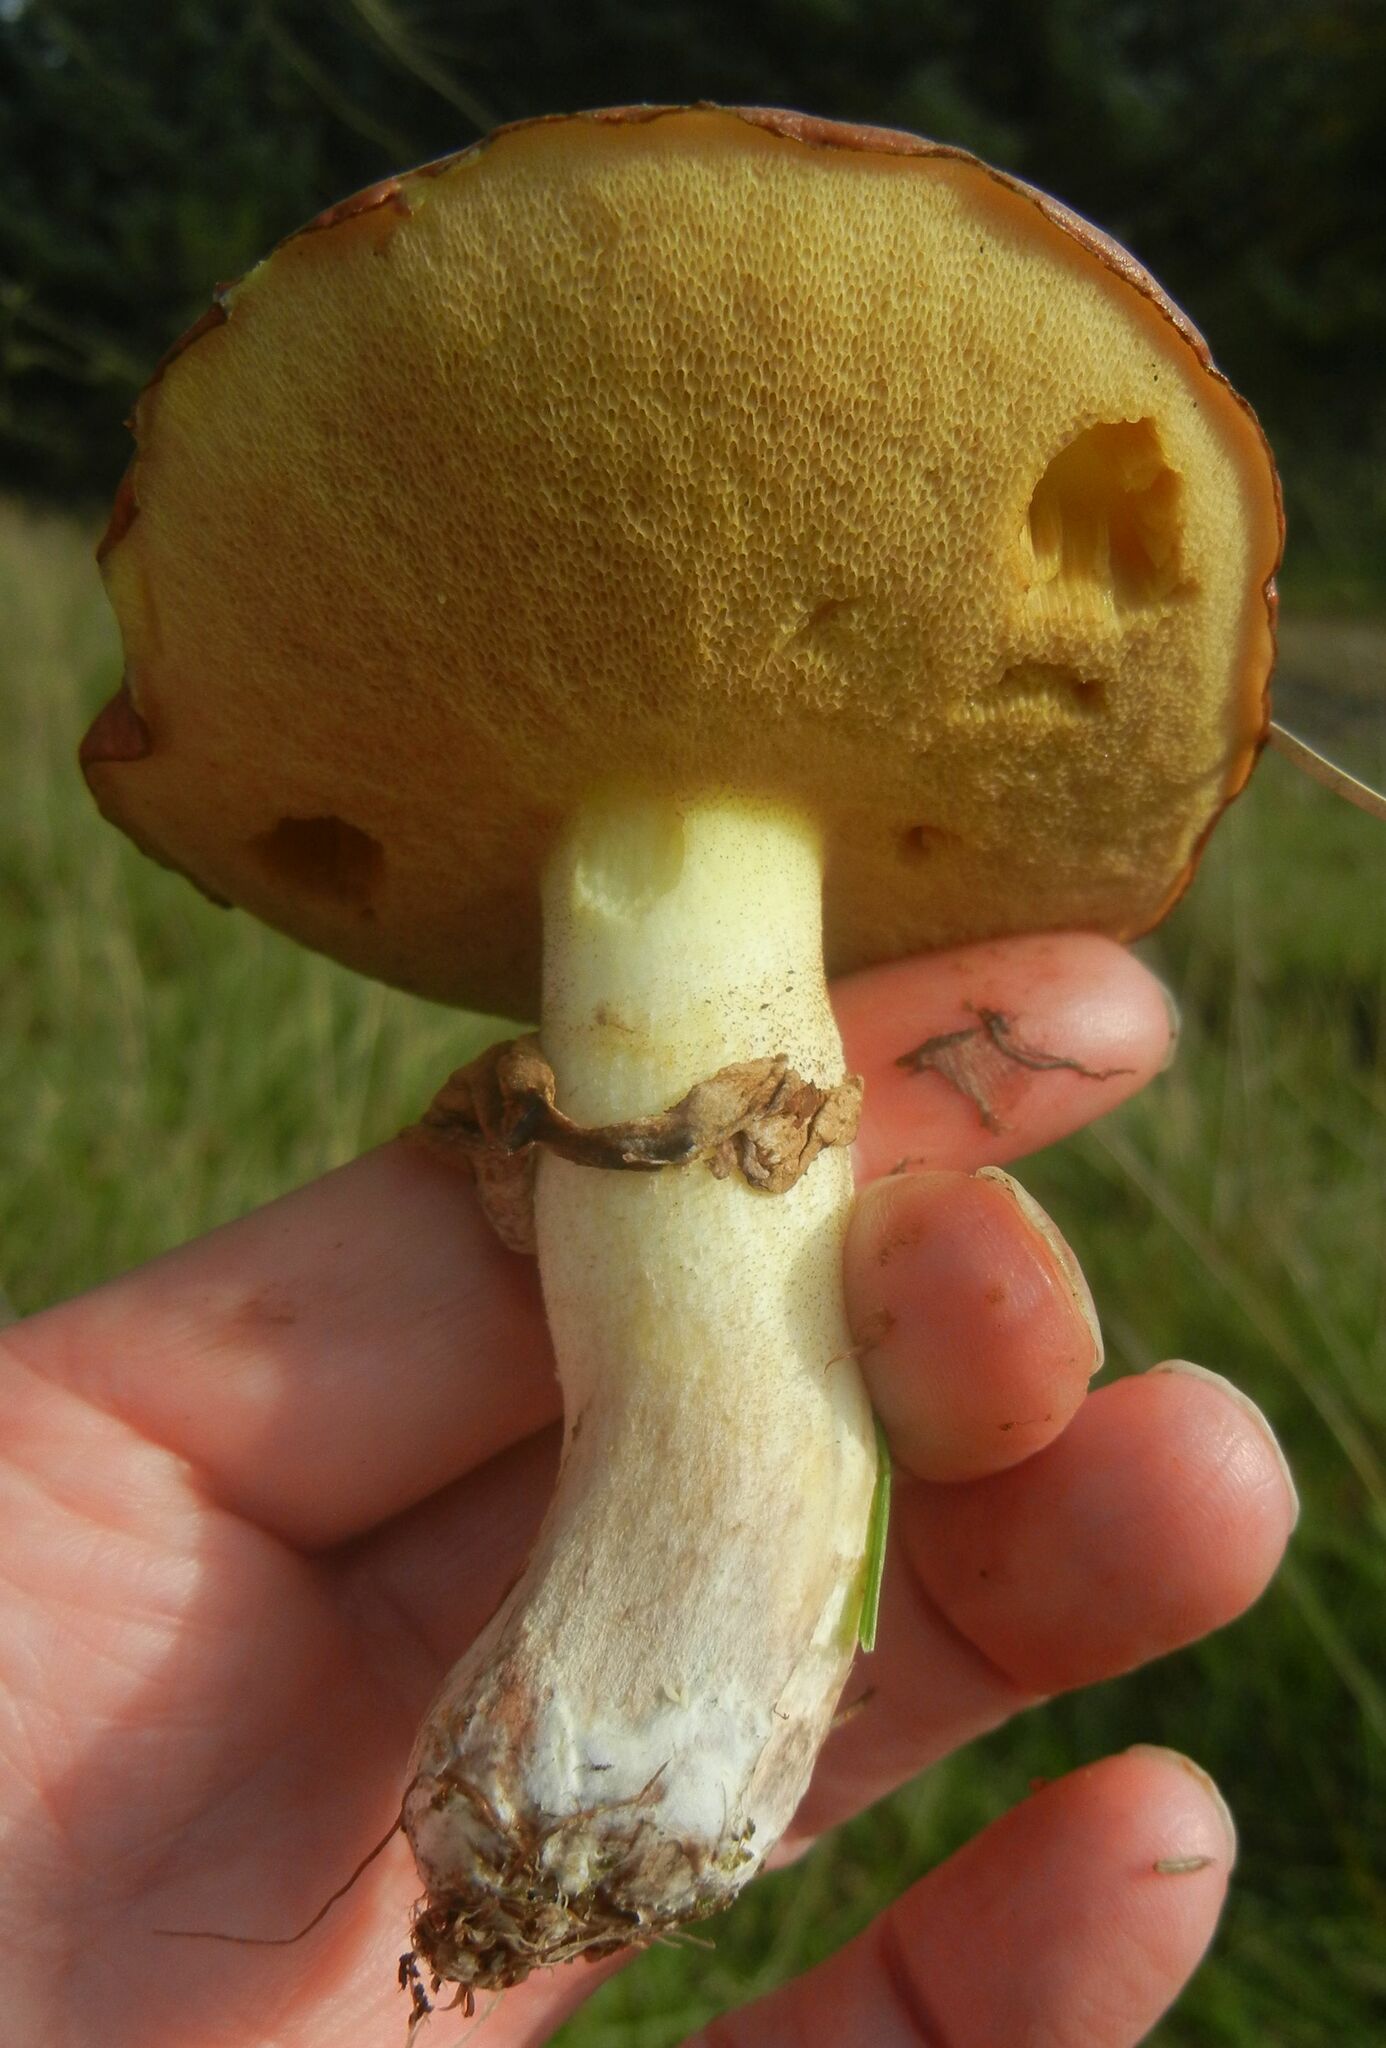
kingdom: Fungi
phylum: Basidiomycota
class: Agaricomycetes
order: Boletales
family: Suillaceae
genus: Suillus
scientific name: Suillus luteus
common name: Slippery jack
